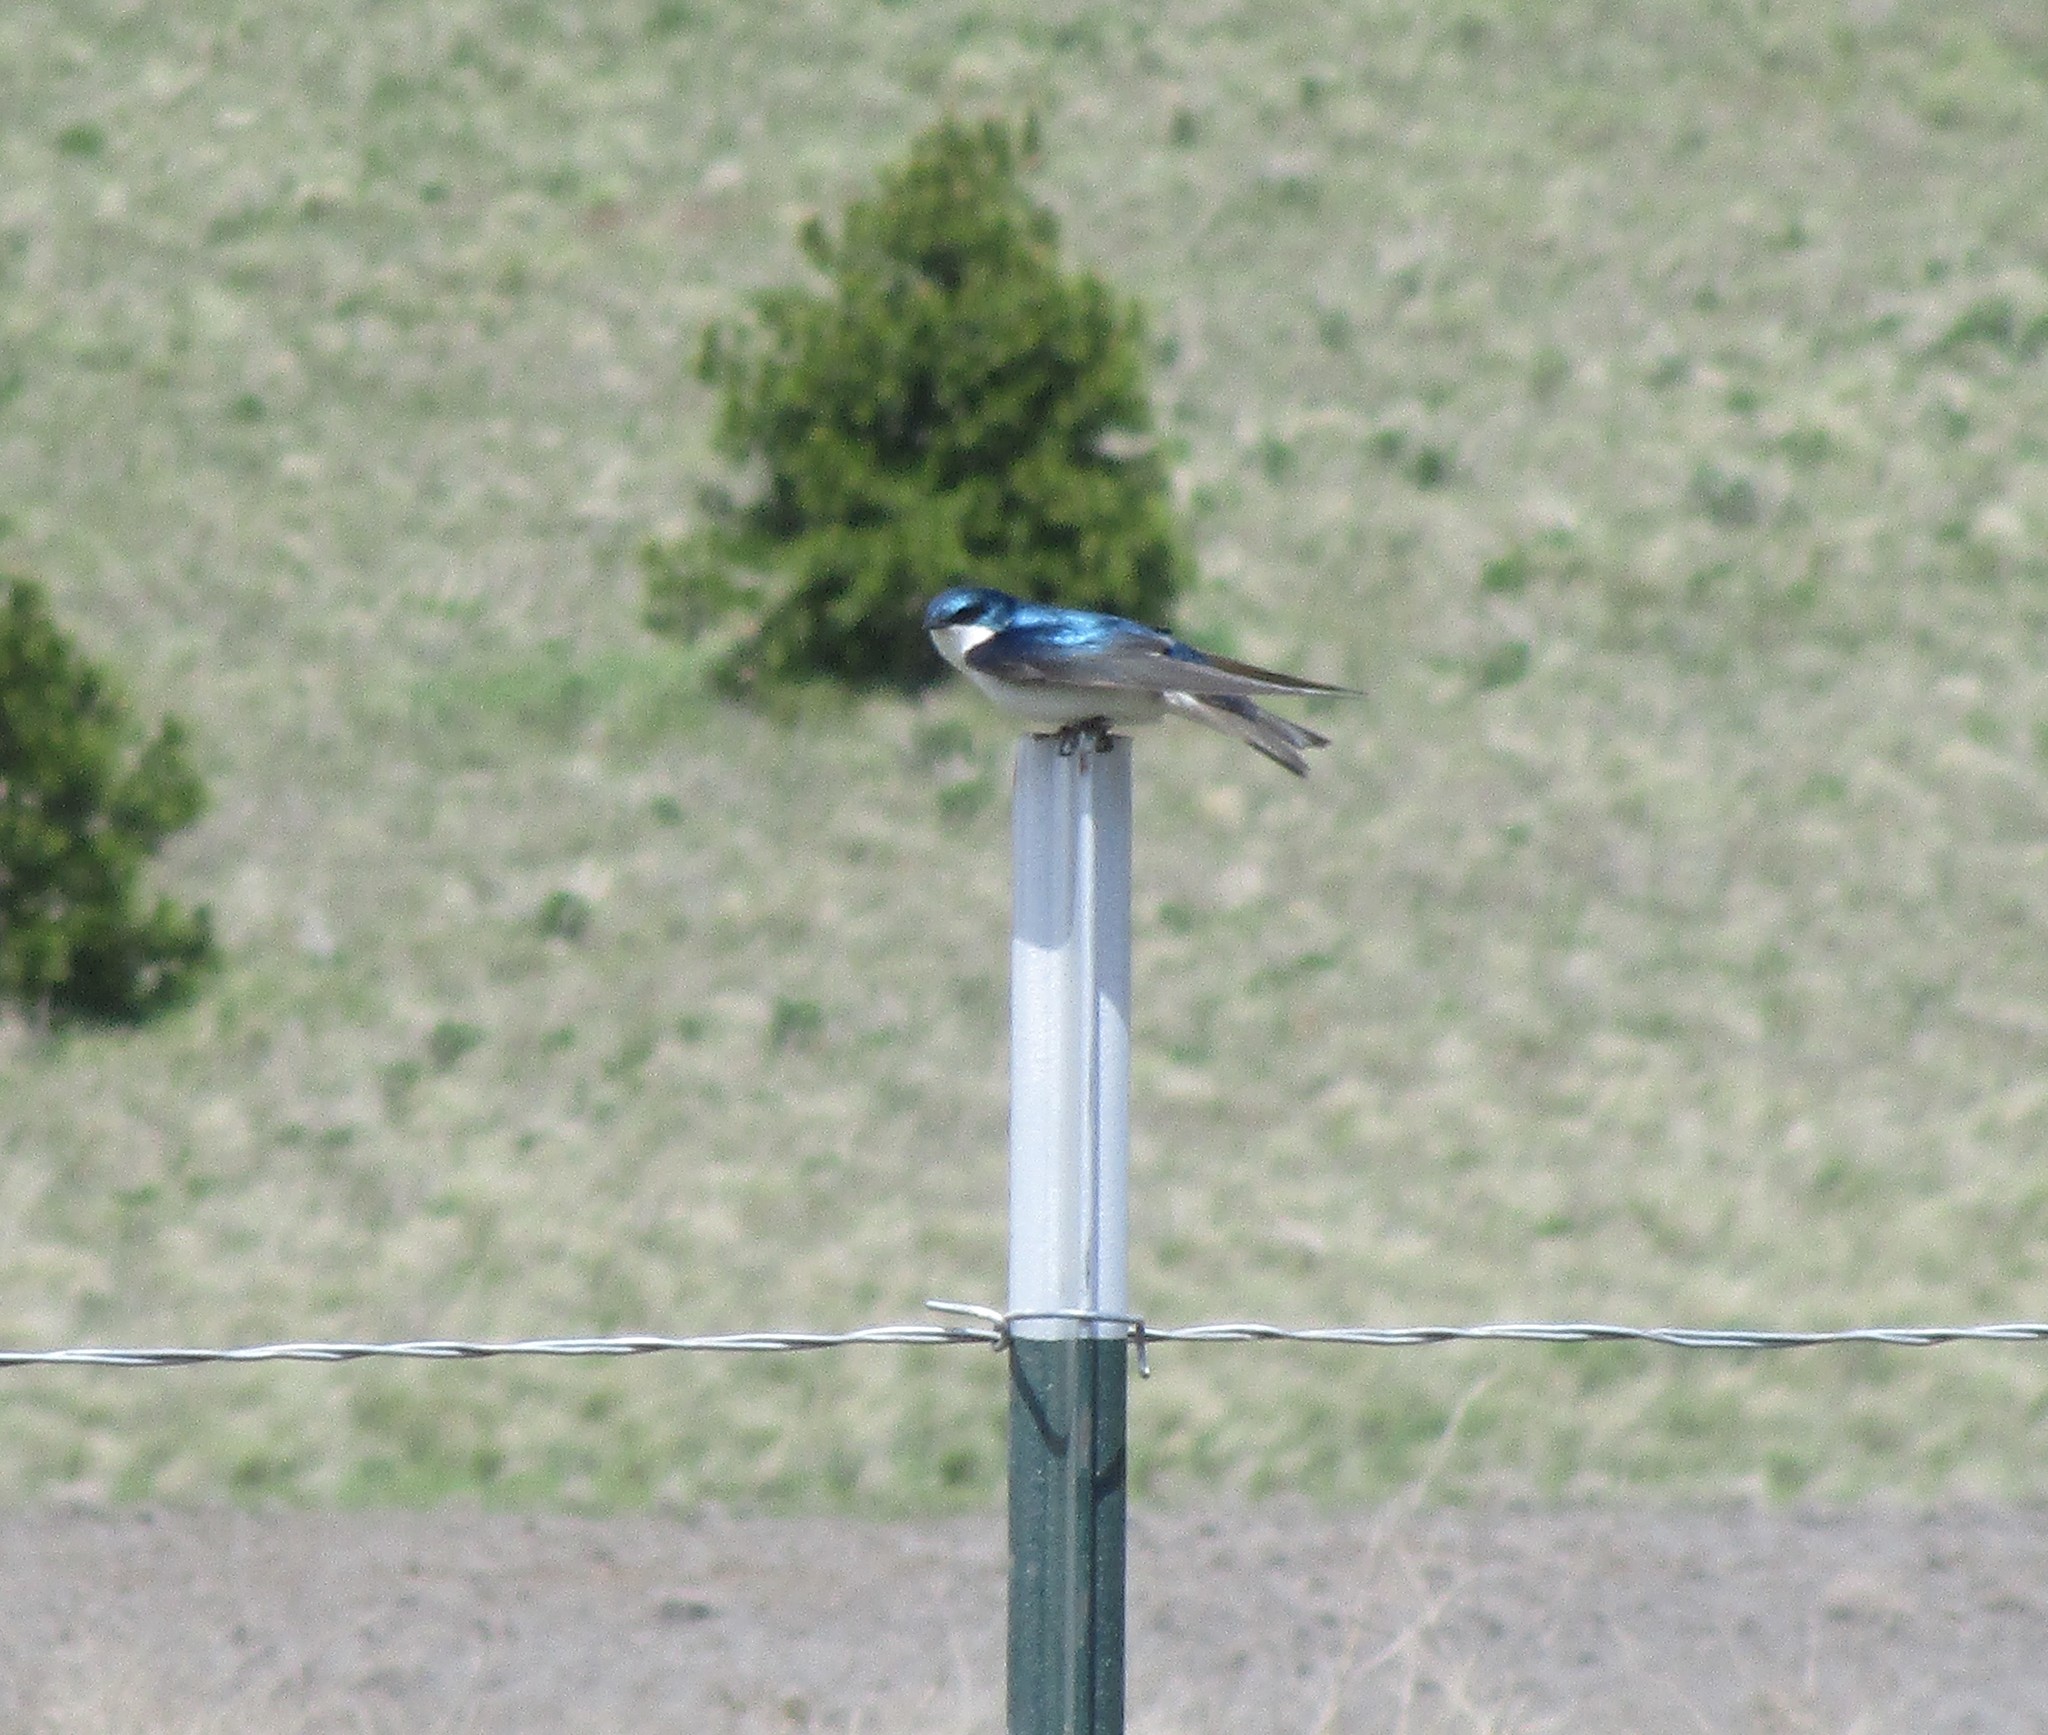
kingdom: Animalia
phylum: Chordata
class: Aves
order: Passeriformes
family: Hirundinidae
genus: Tachycineta
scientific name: Tachycineta bicolor
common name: Tree swallow
